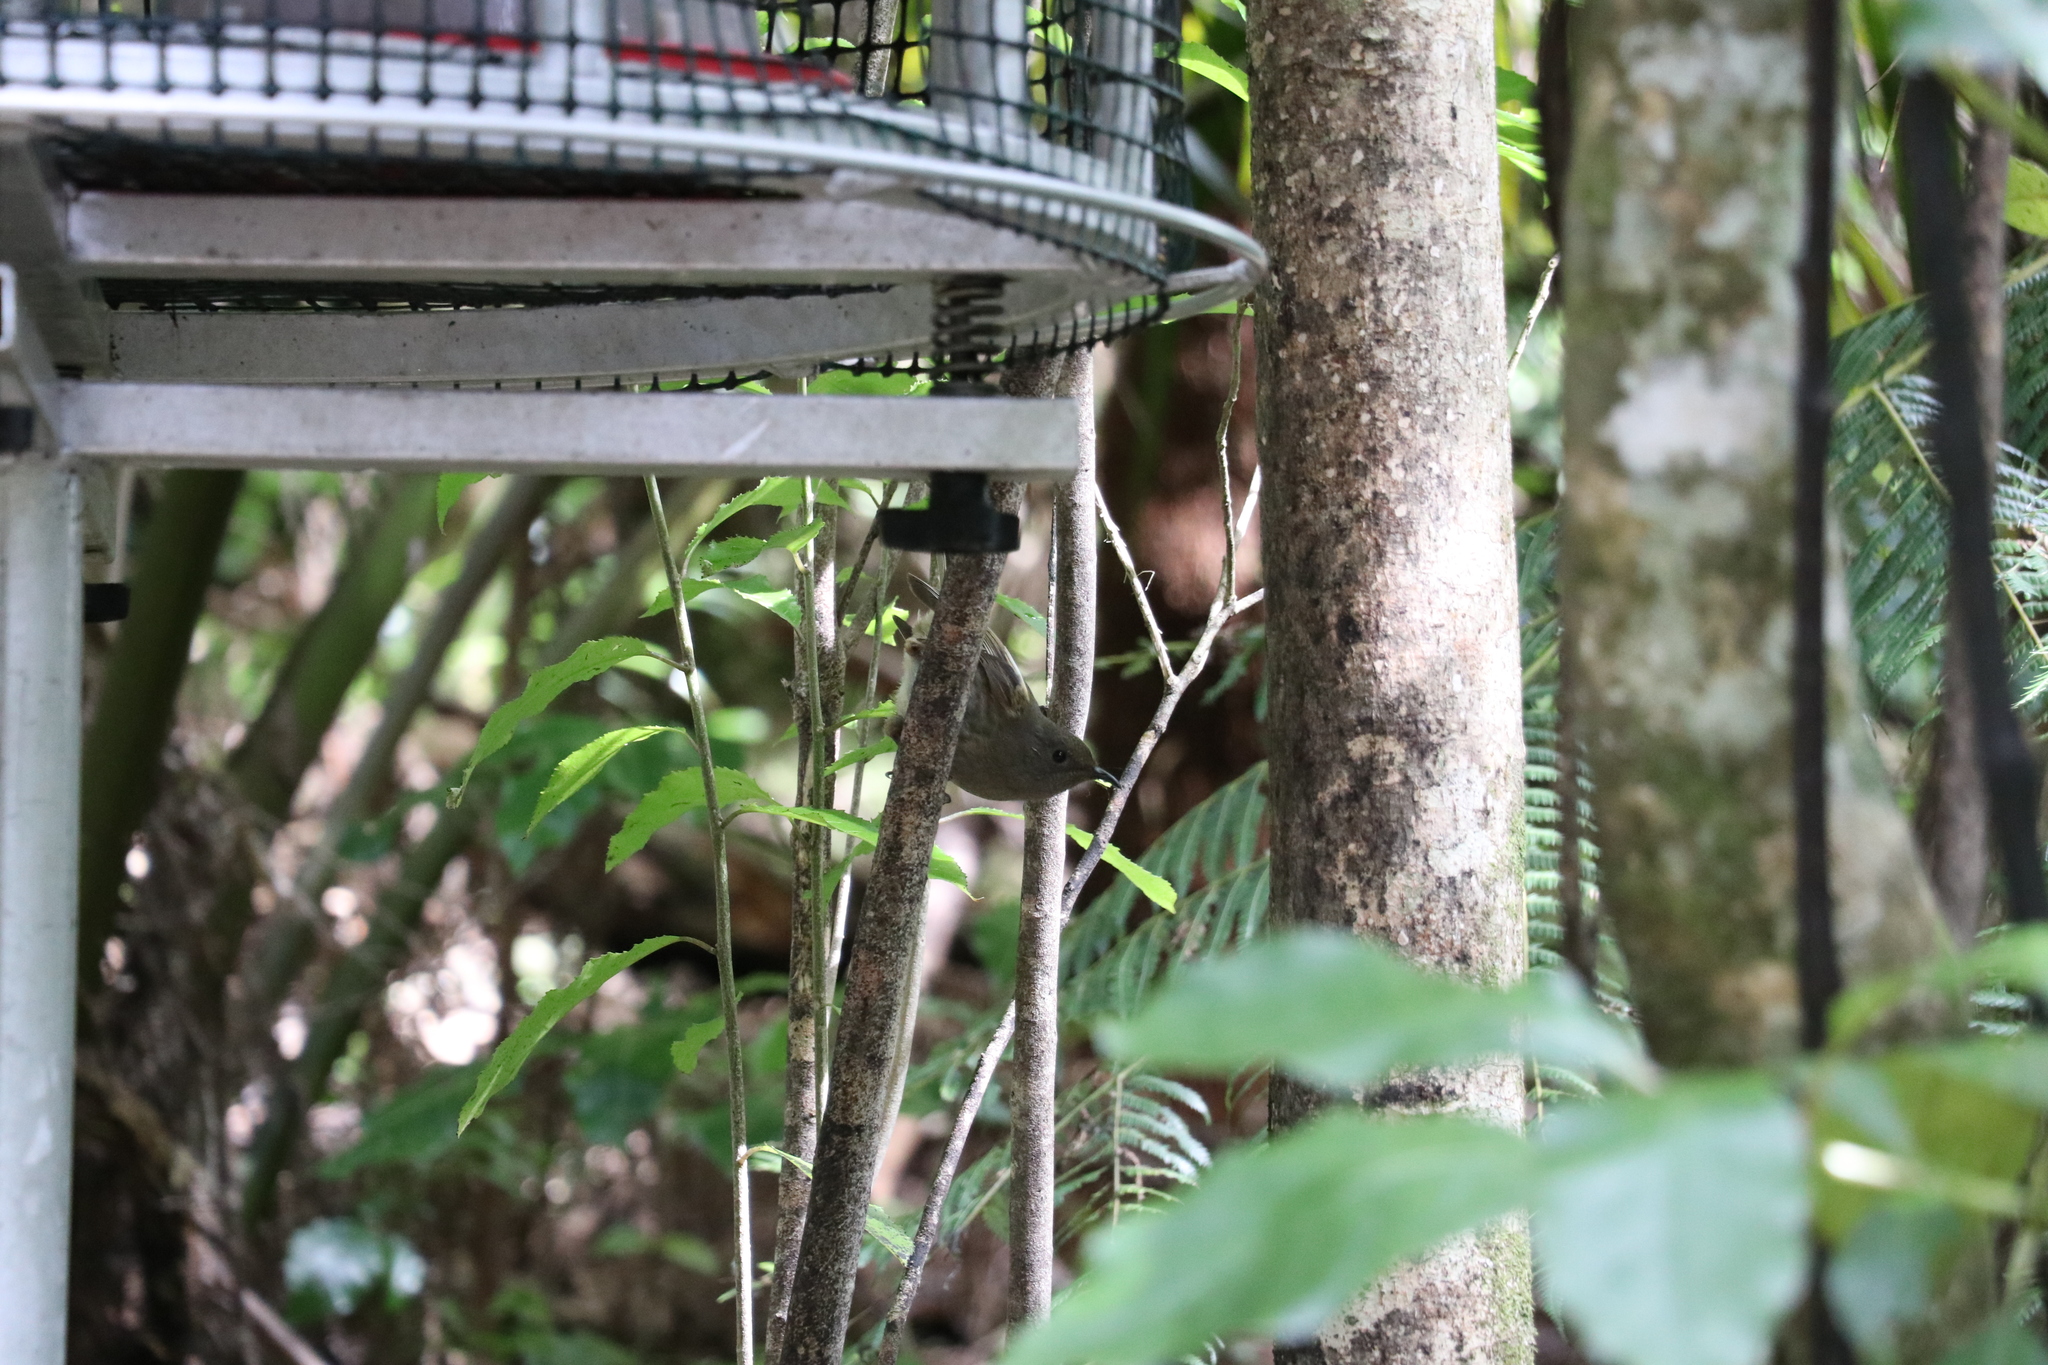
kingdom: Animalia
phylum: Chordata
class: Aves
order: Passeriformes
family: Notiomystidae
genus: Notiomystis
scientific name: Notiomystis cincta
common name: Stitchbird
